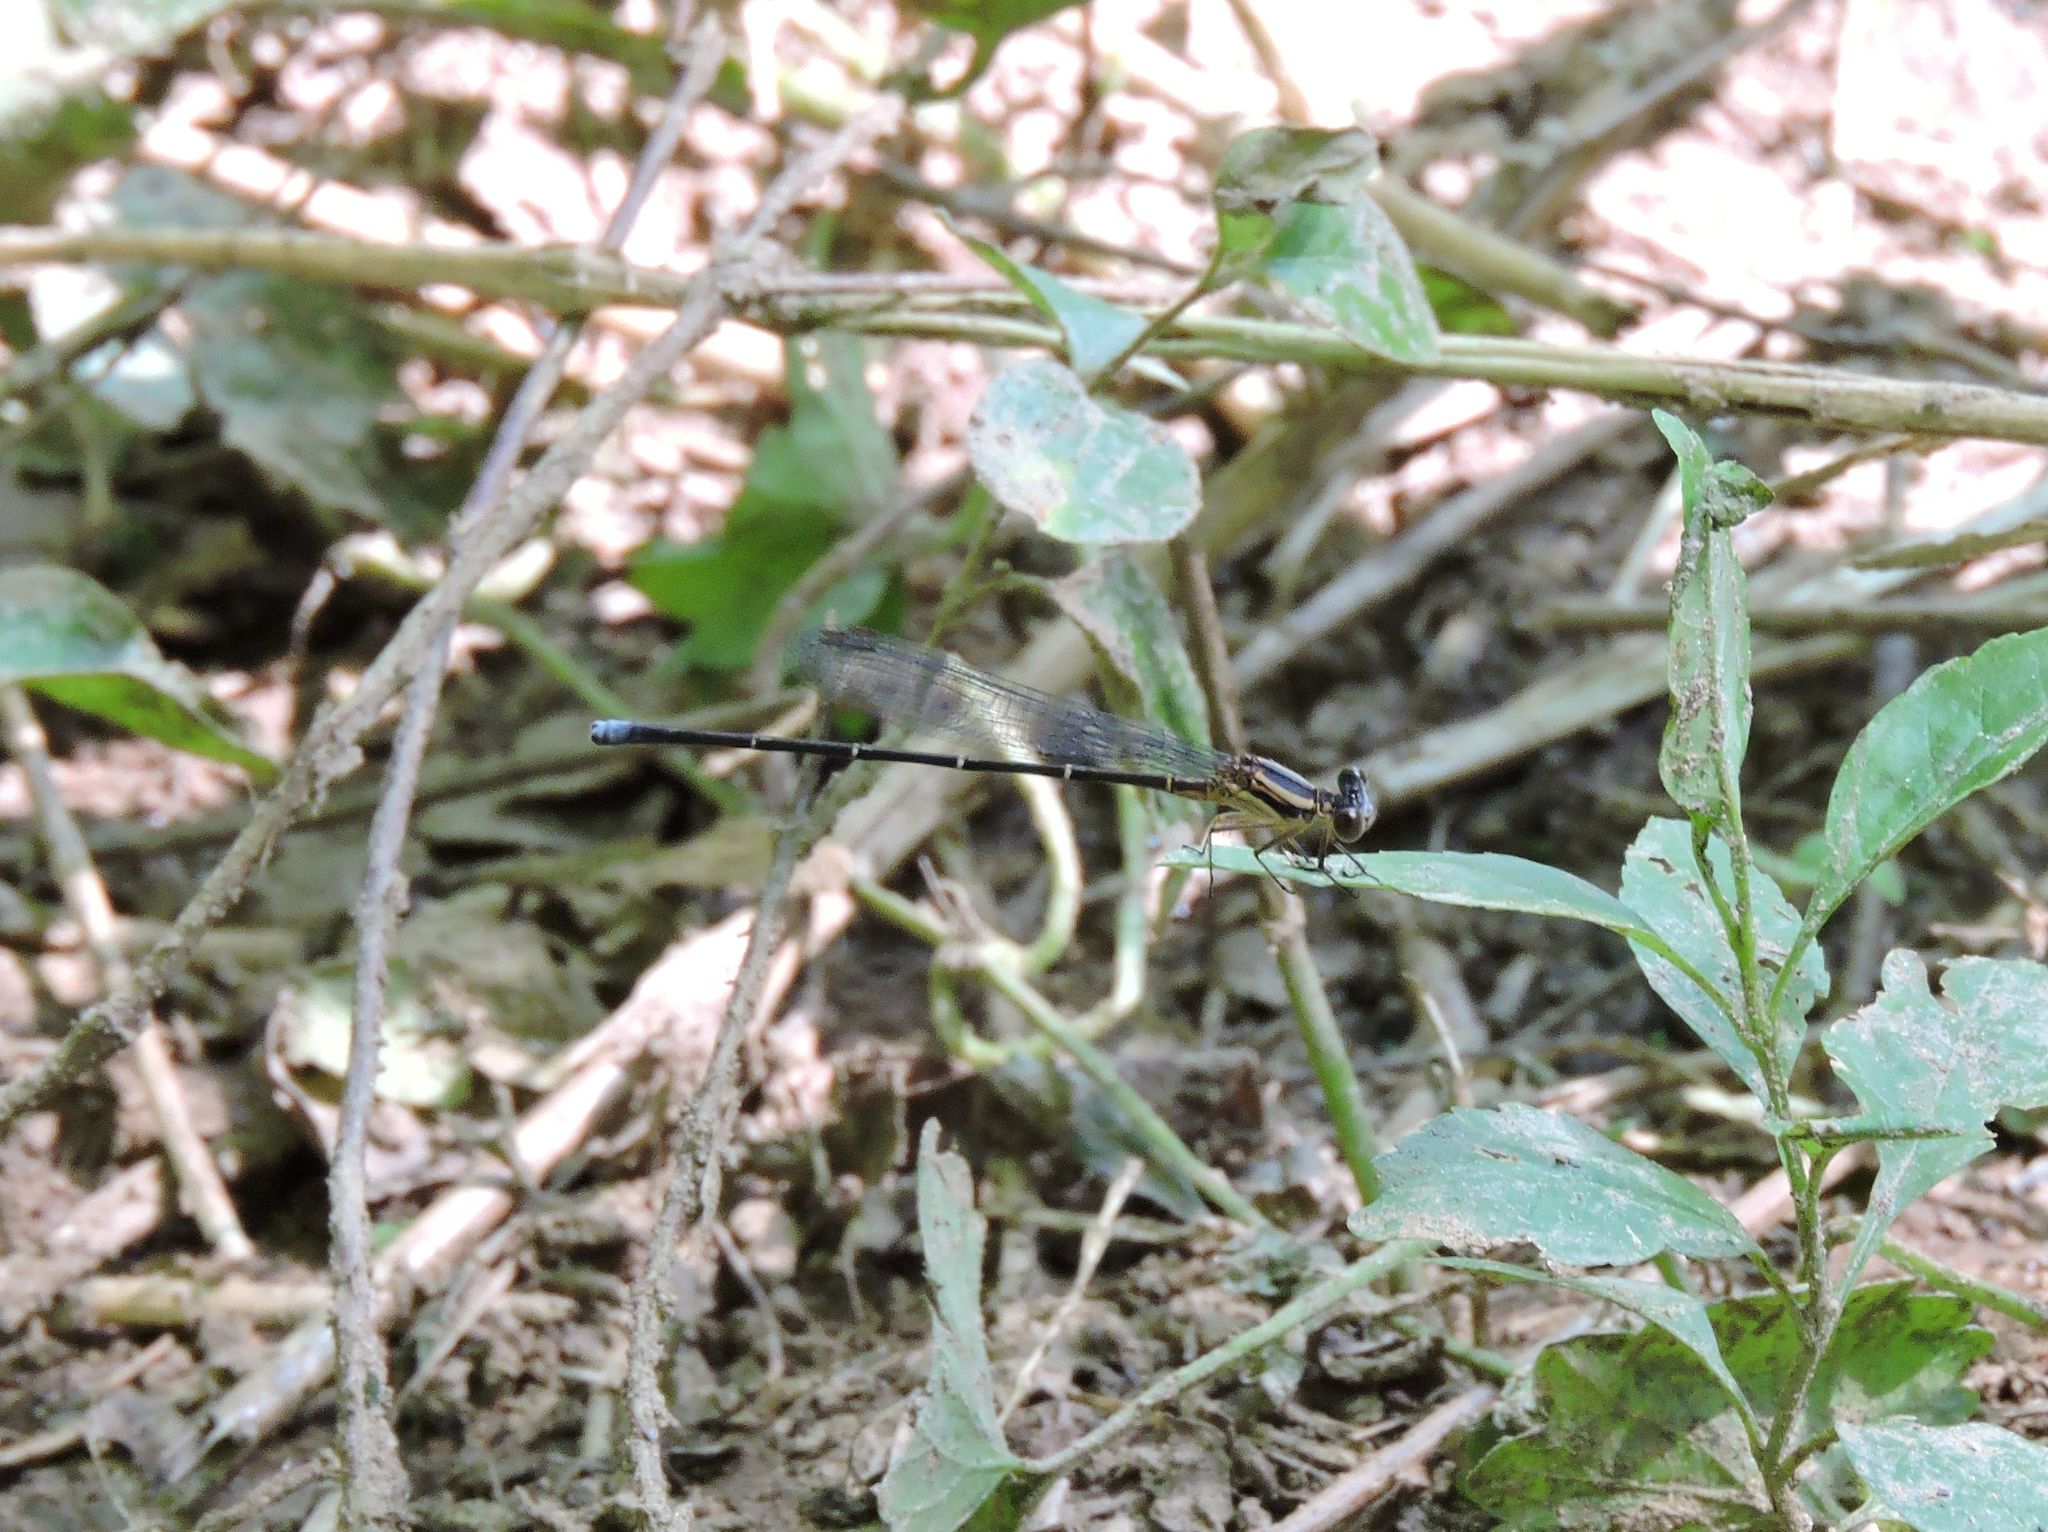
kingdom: Animalia
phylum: Arthropoda
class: Insecta
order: Odonata
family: Coenagrionidae
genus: Argia
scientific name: Argia moesta
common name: Powdered dancer
